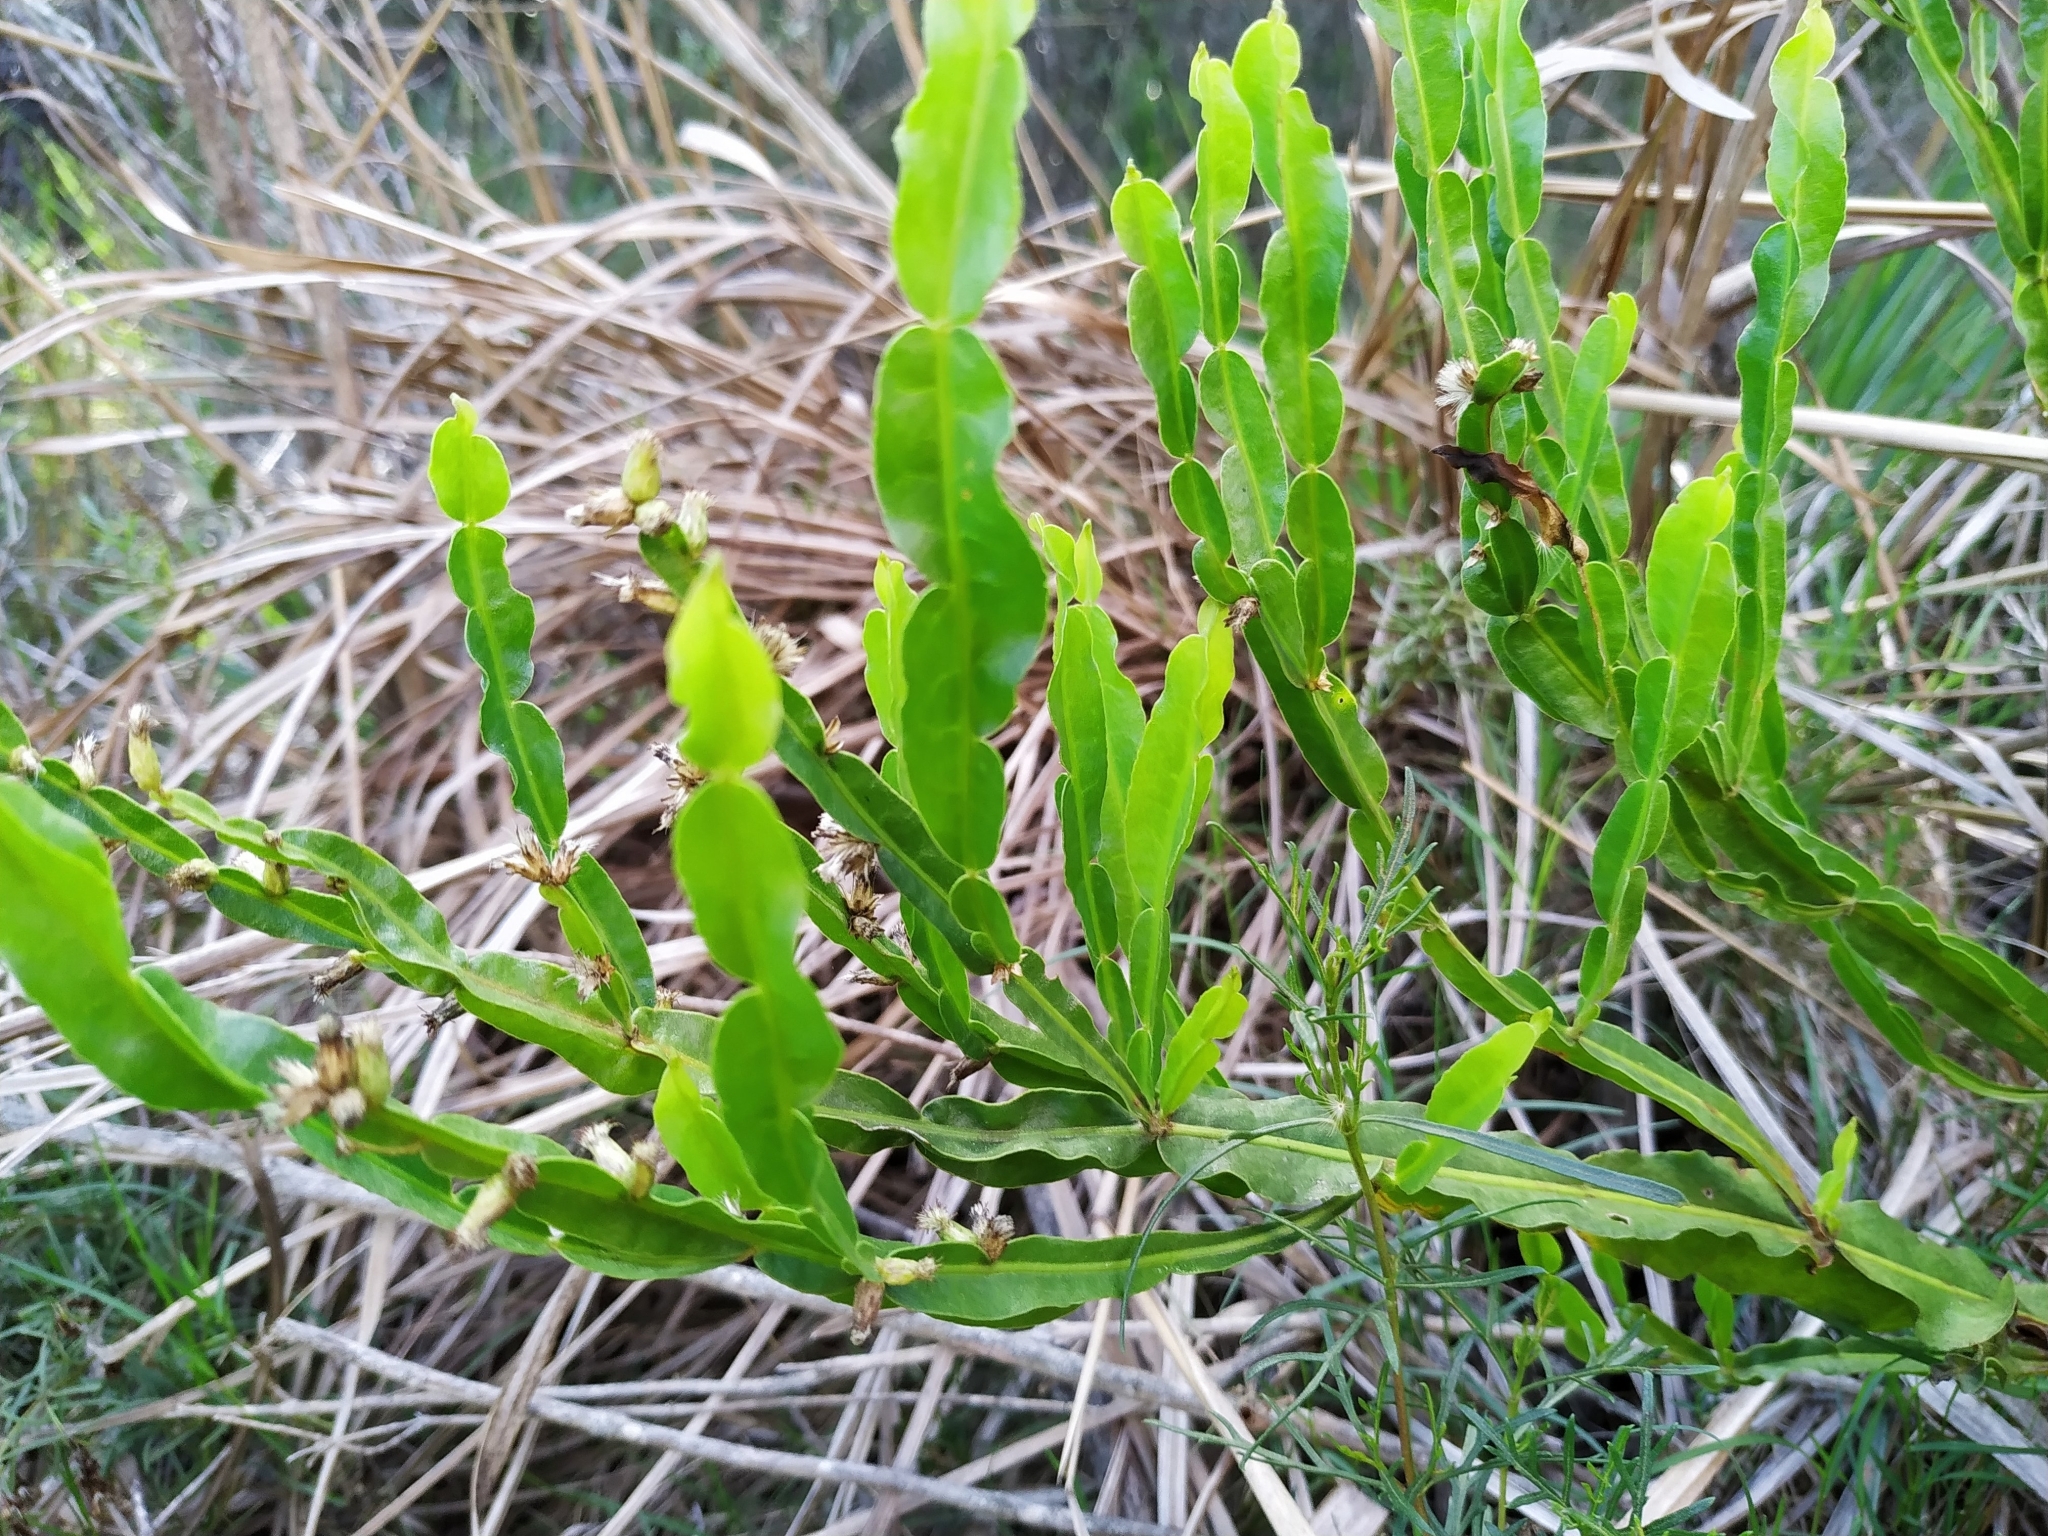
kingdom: Plantae
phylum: Tracheophyta
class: Magnoliopsida
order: Asterales
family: Asteraceae
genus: Baccharis
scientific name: Baccharis trimera
